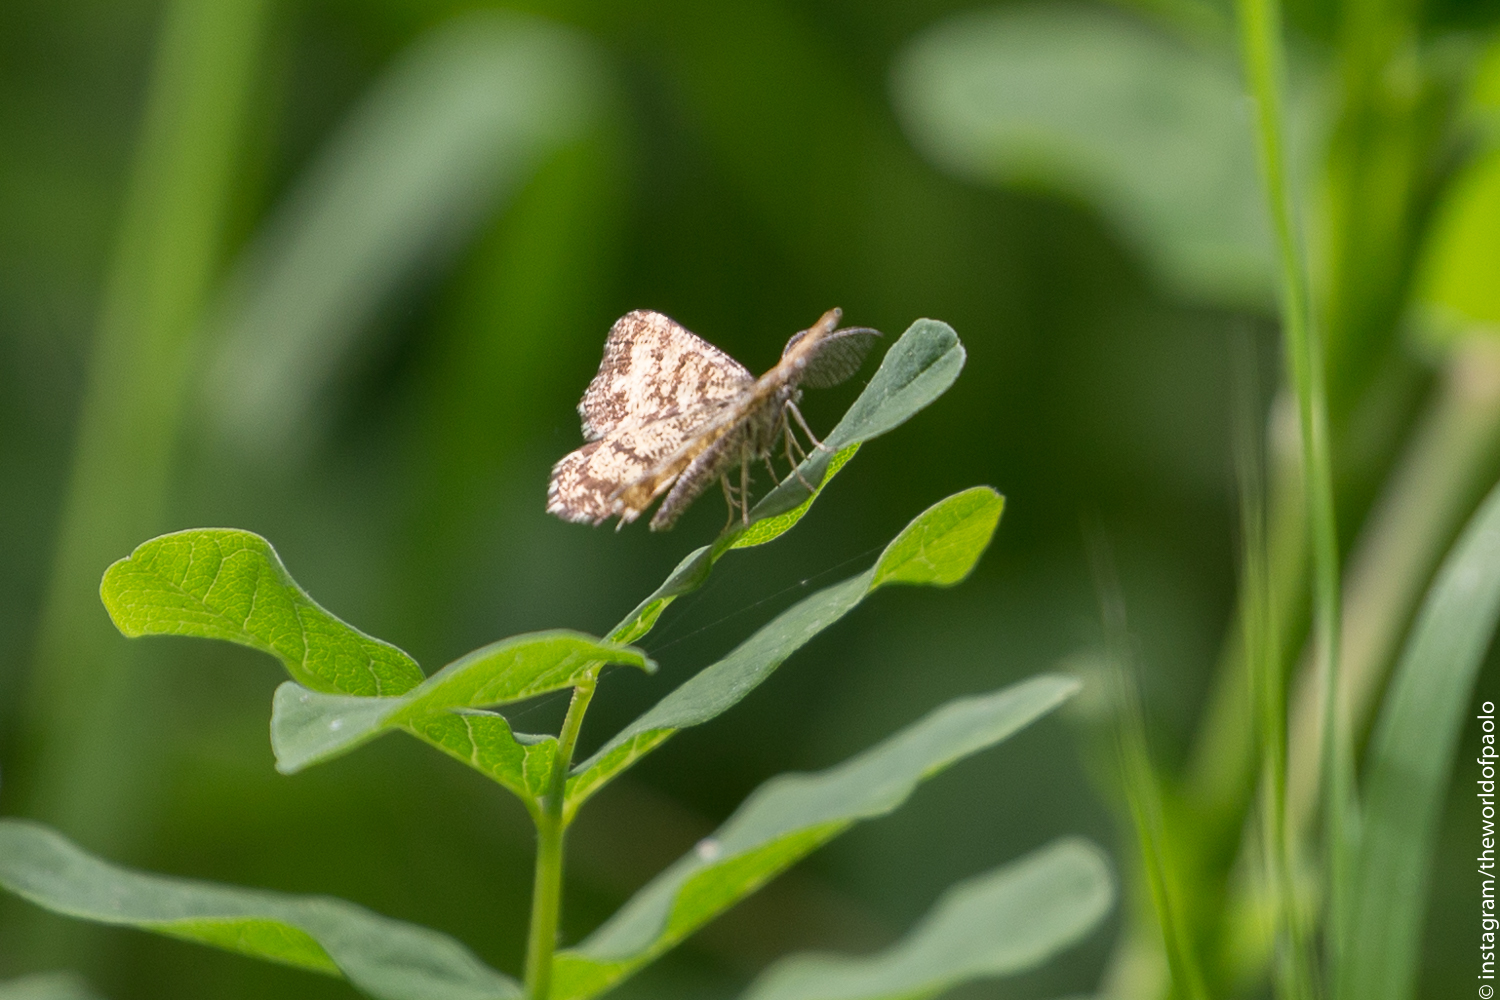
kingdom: Animalia
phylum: Arthropoda
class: Insecta
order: Lepidoptera
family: Geometridae
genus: Ematurga
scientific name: Ematurga atomaria
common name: Common heath
